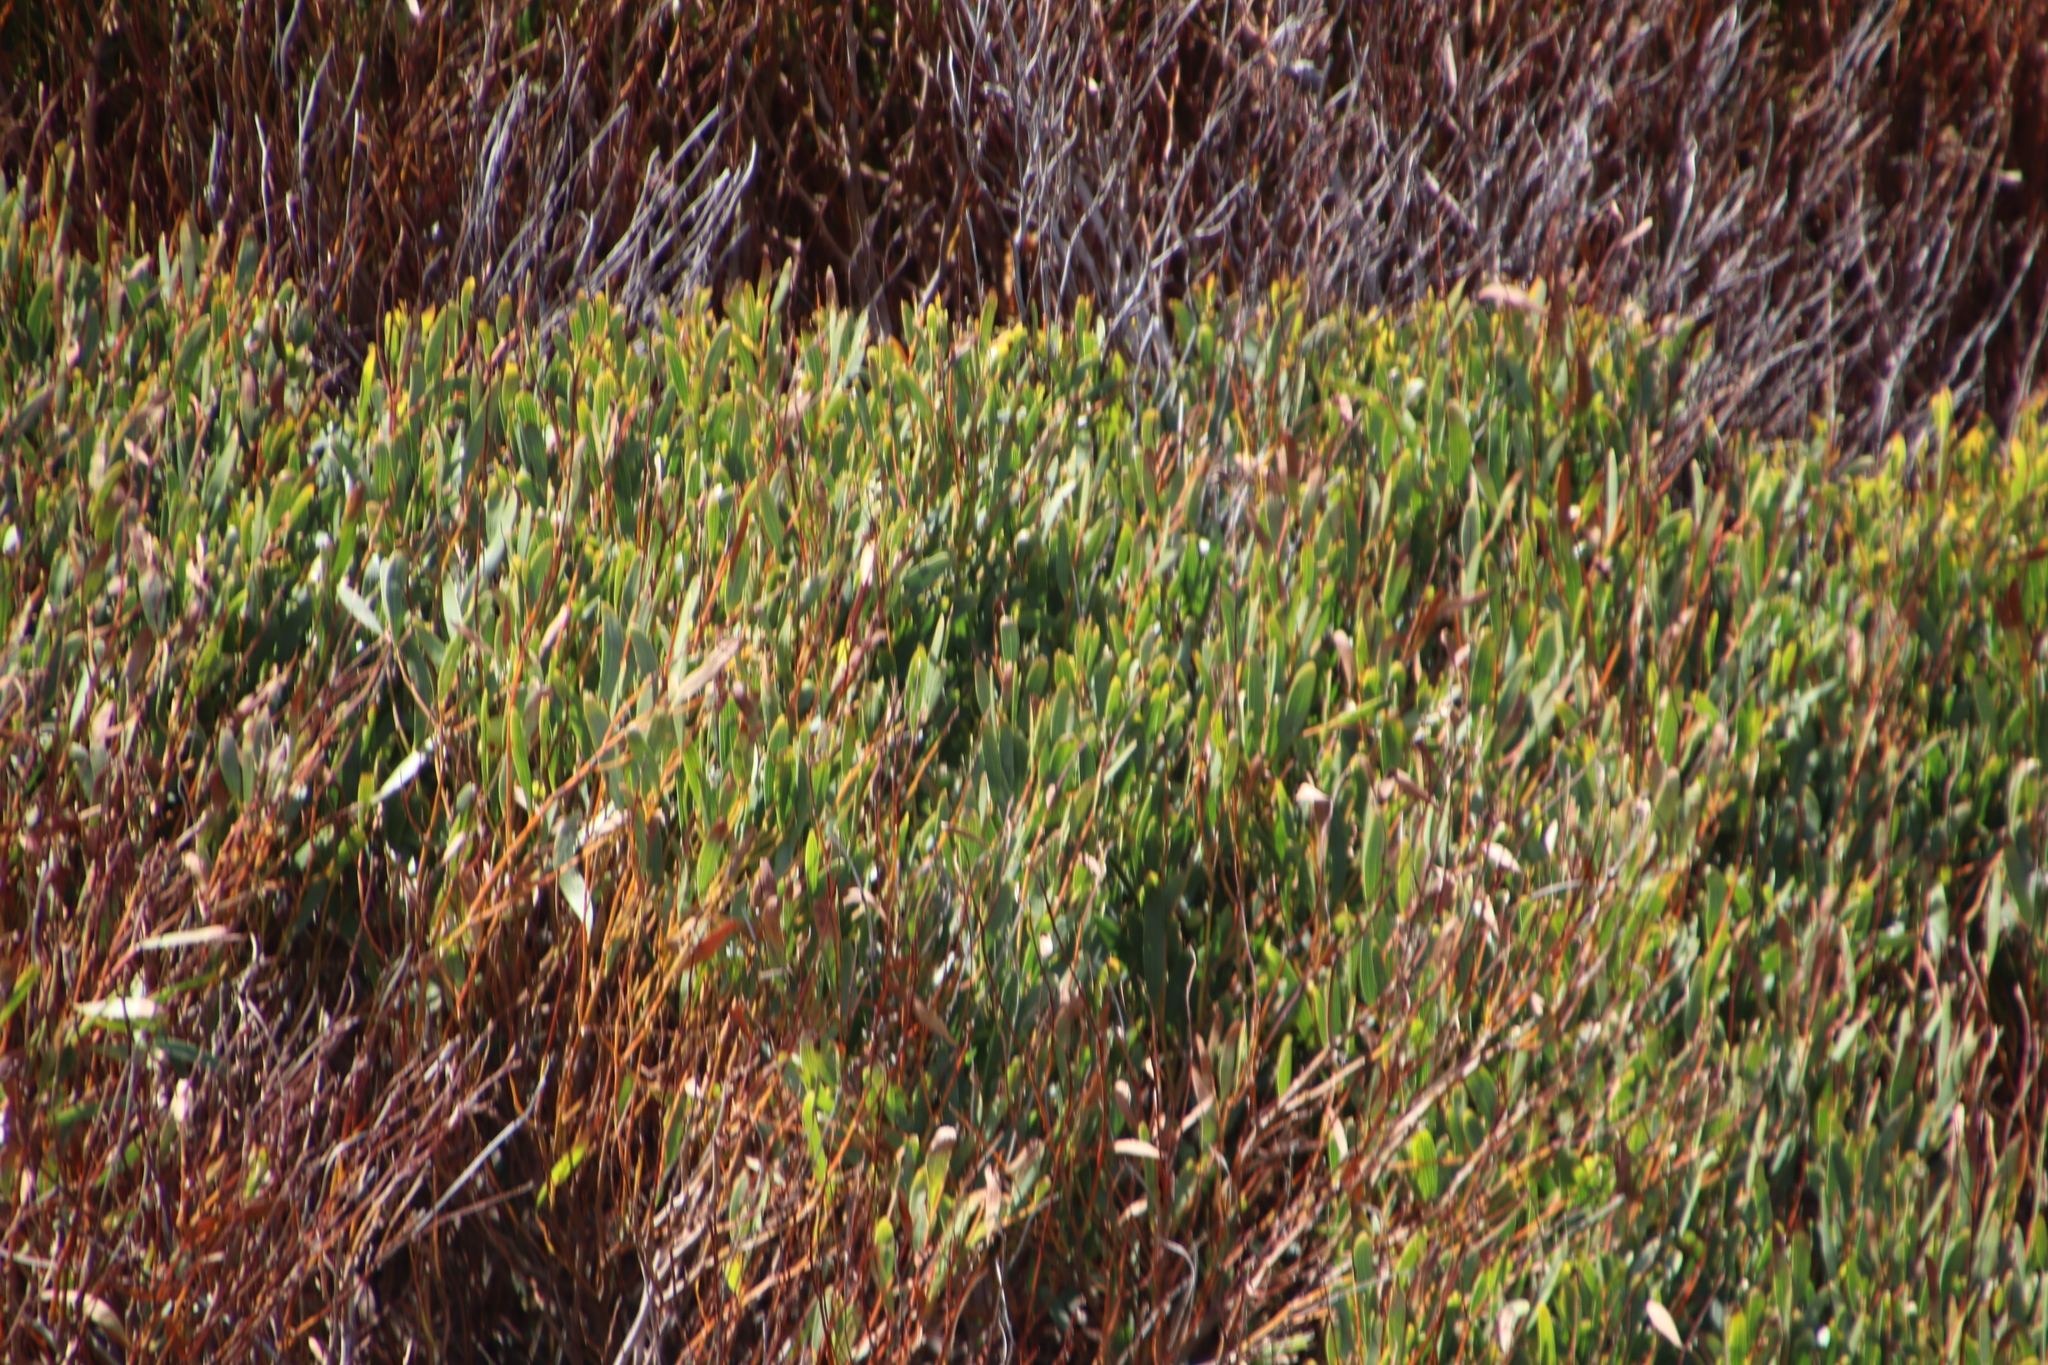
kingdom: Plantae
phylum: Tracheophyta
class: Magnoliopsida
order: Fabales
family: Fabaceae
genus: Acacia
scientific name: Acacia cyclops
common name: Coastal wattle
